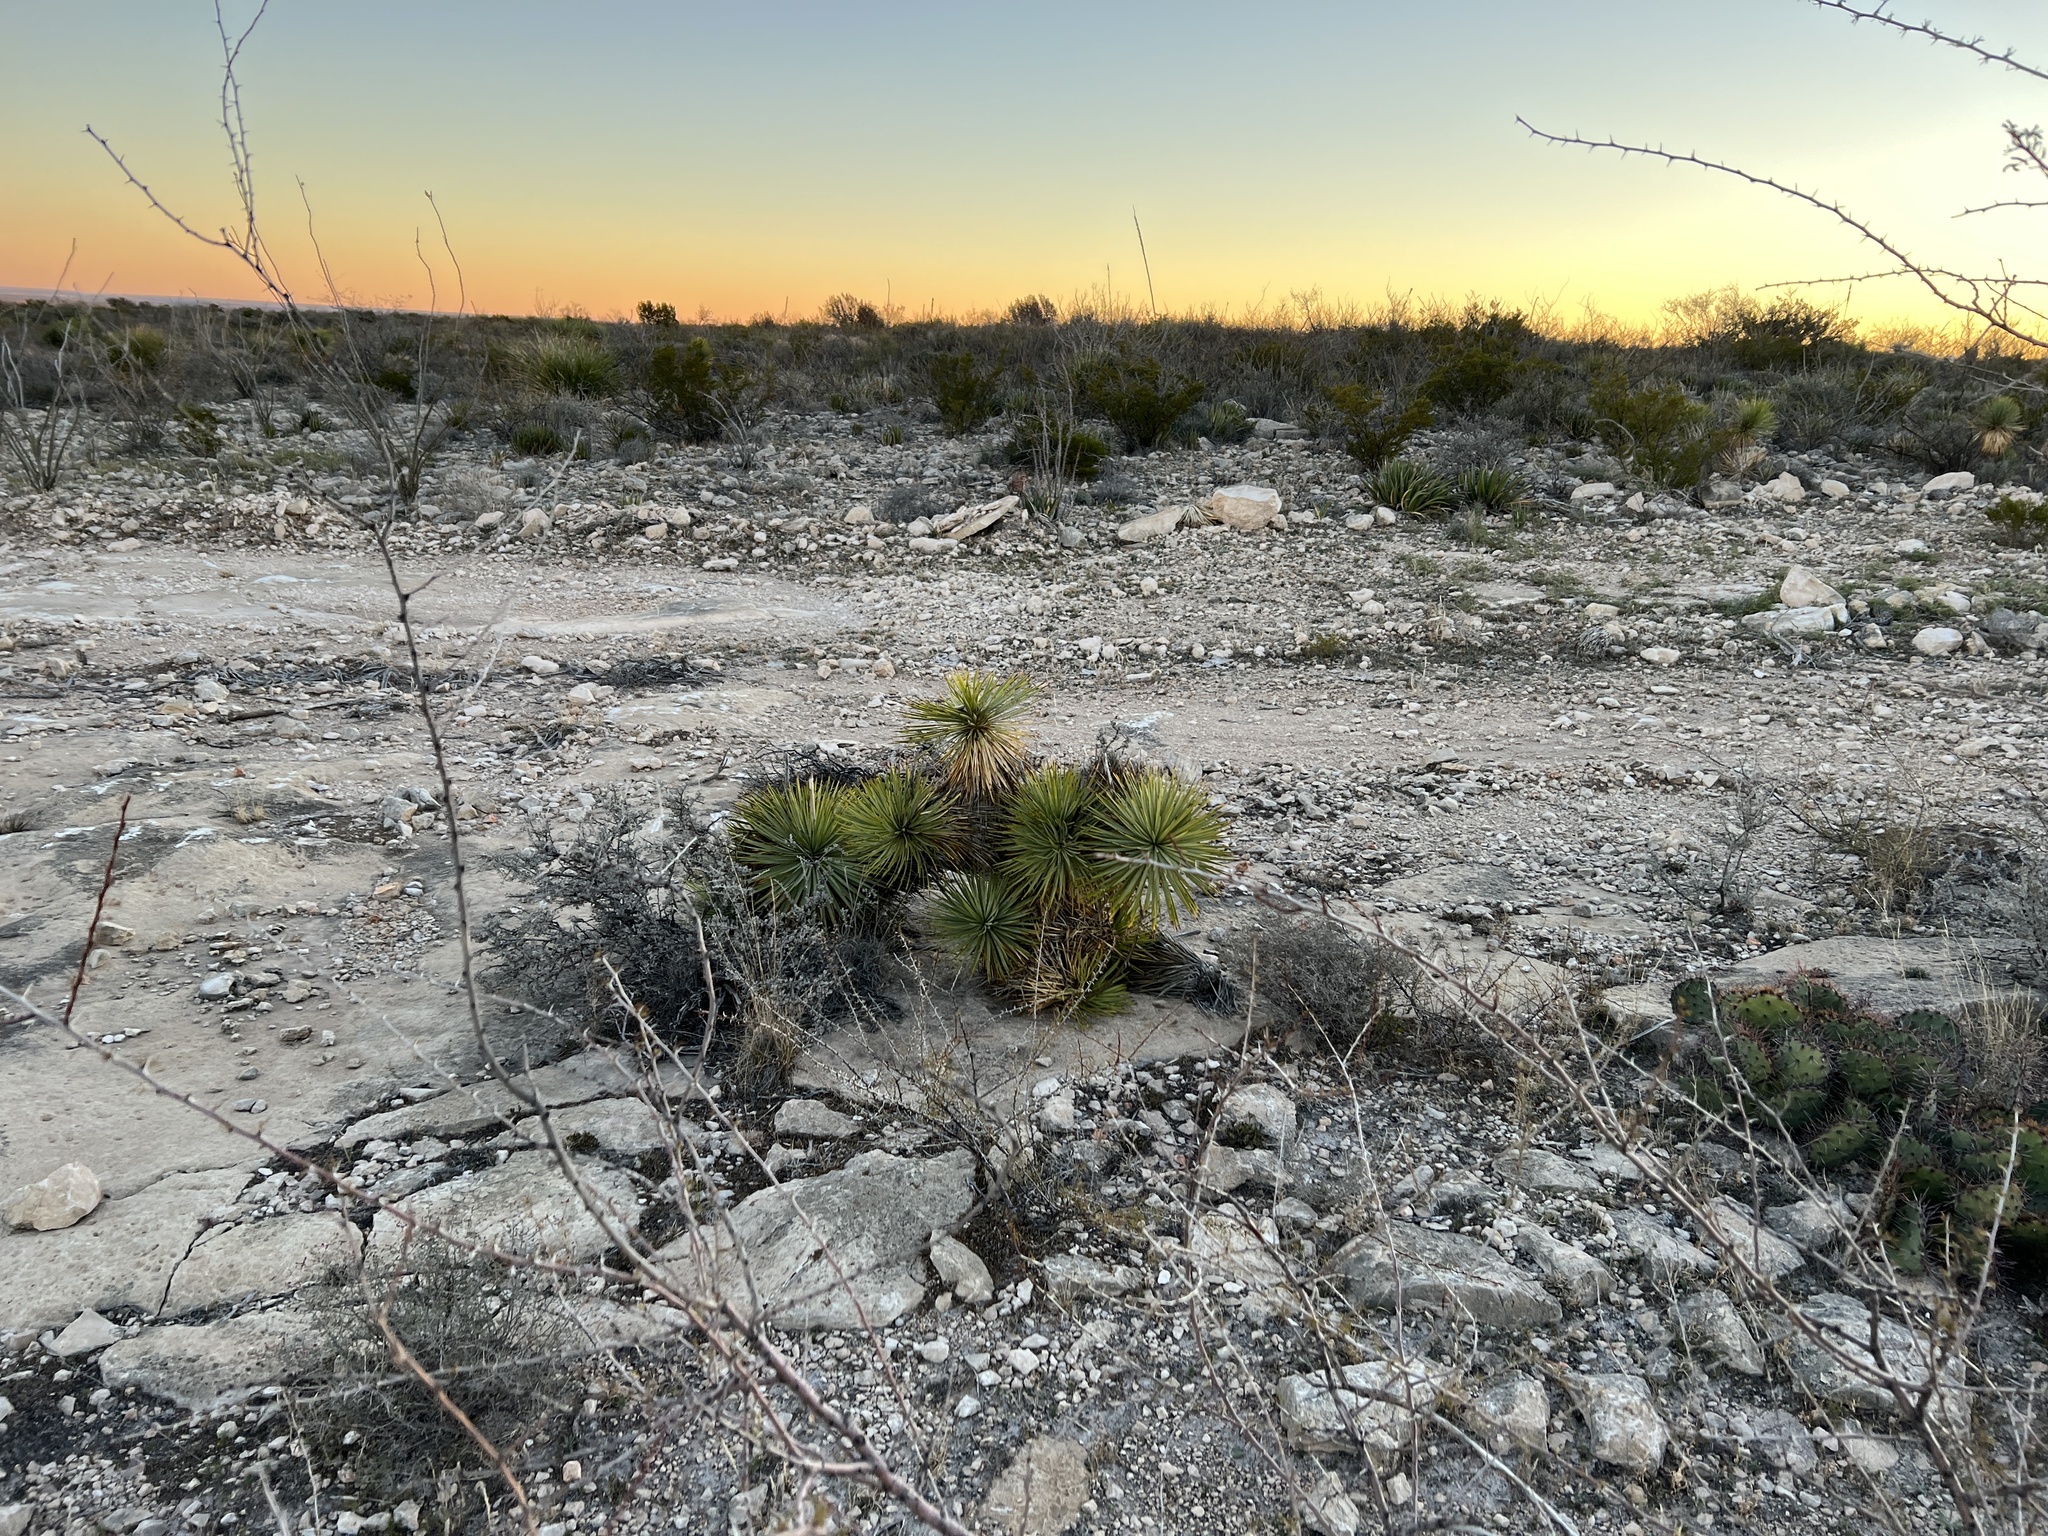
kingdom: Plantae
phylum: Tracheophyta
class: Liliopsida
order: Asparagales
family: Asparagaceae
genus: Yucca
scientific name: Yucca thompsoniana
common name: Trans-pecos yucca
